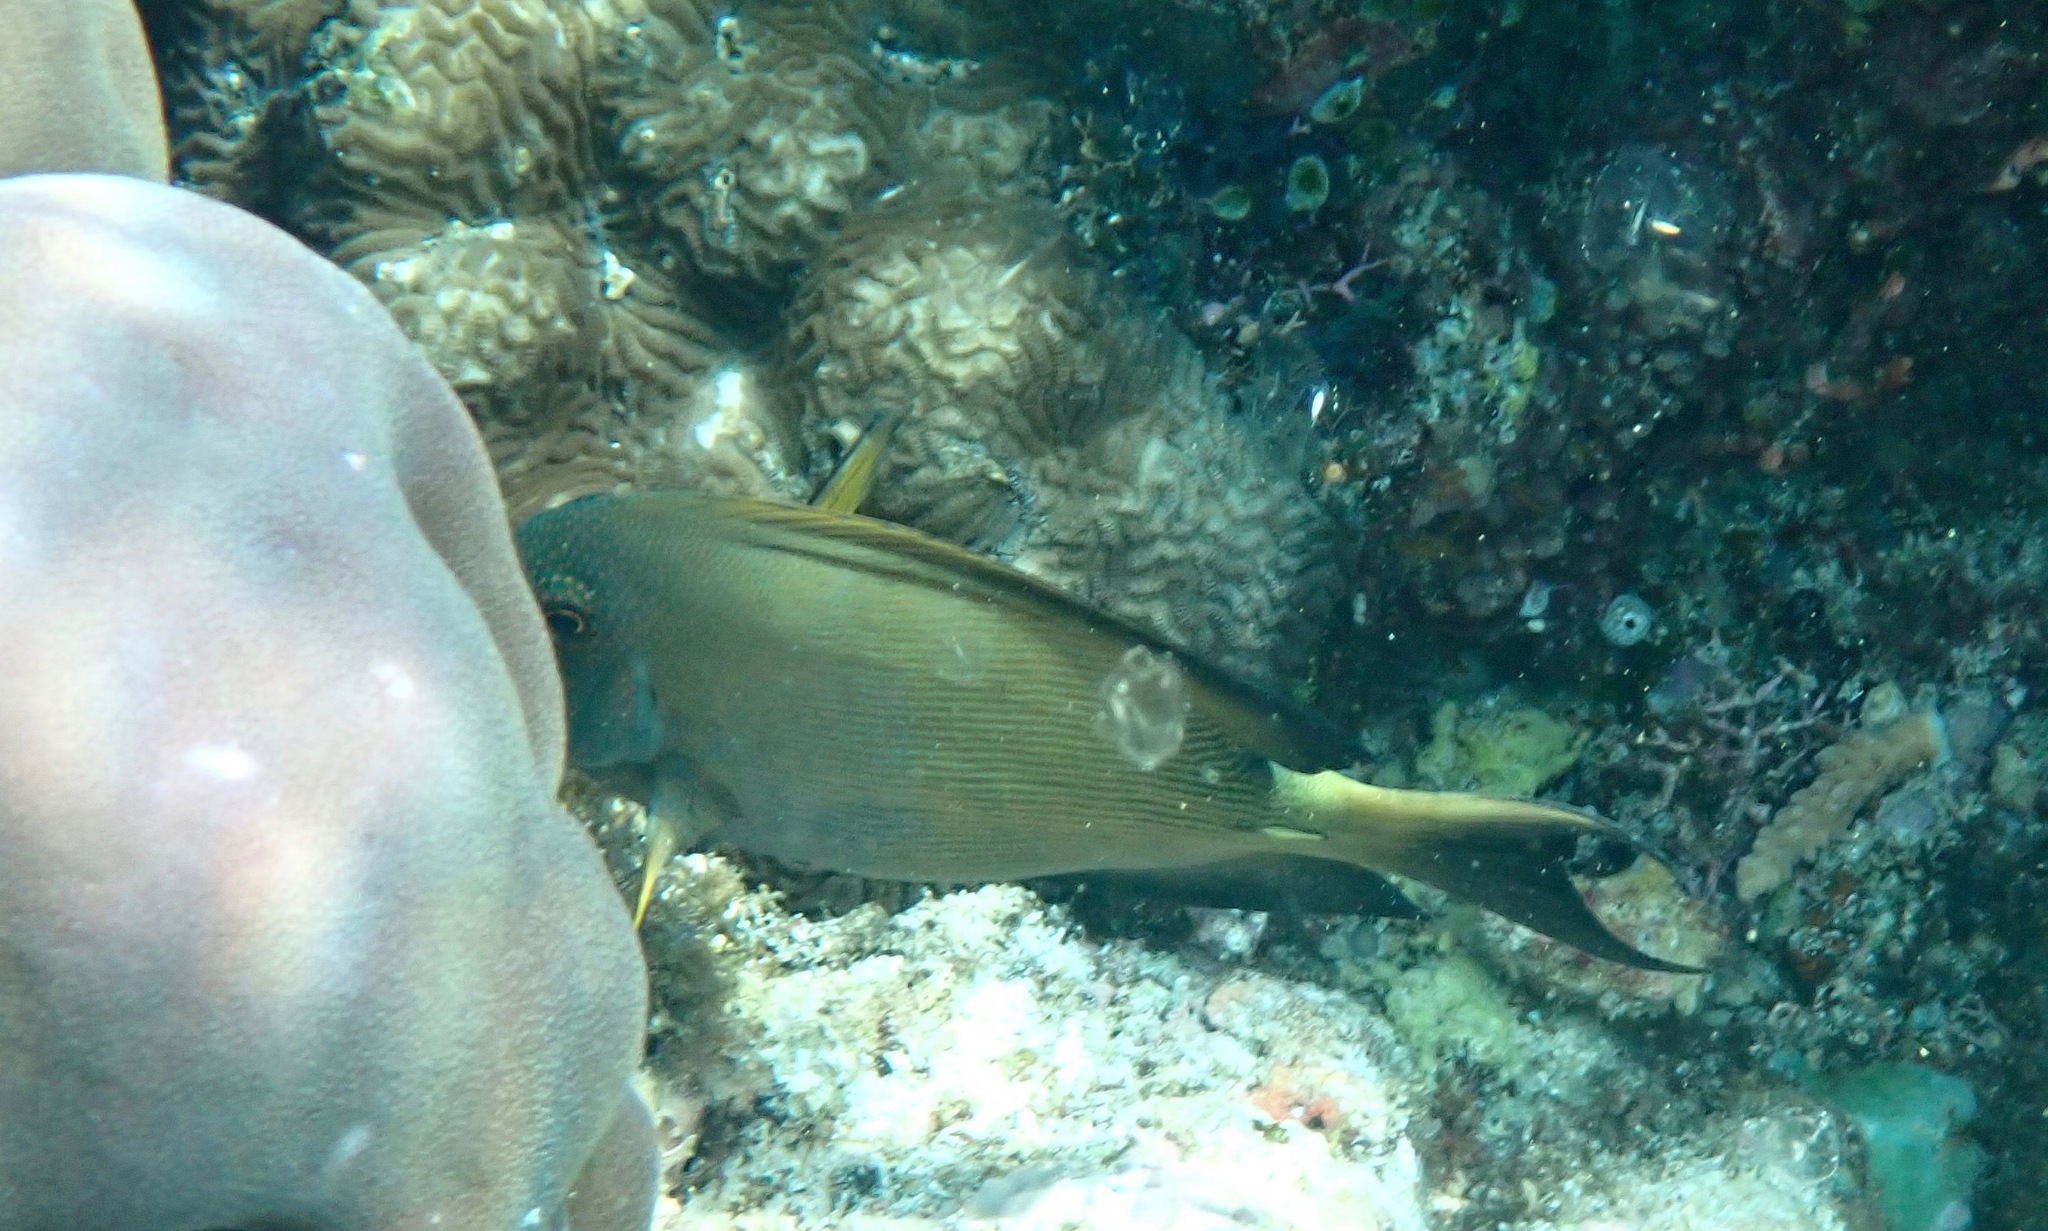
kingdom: Animalia
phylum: Chordata
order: Perciformes
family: Acanthuridae
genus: Ctenochaetus
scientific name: Ctenochaetus striatus
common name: Bristle-toothed surgeonfish
